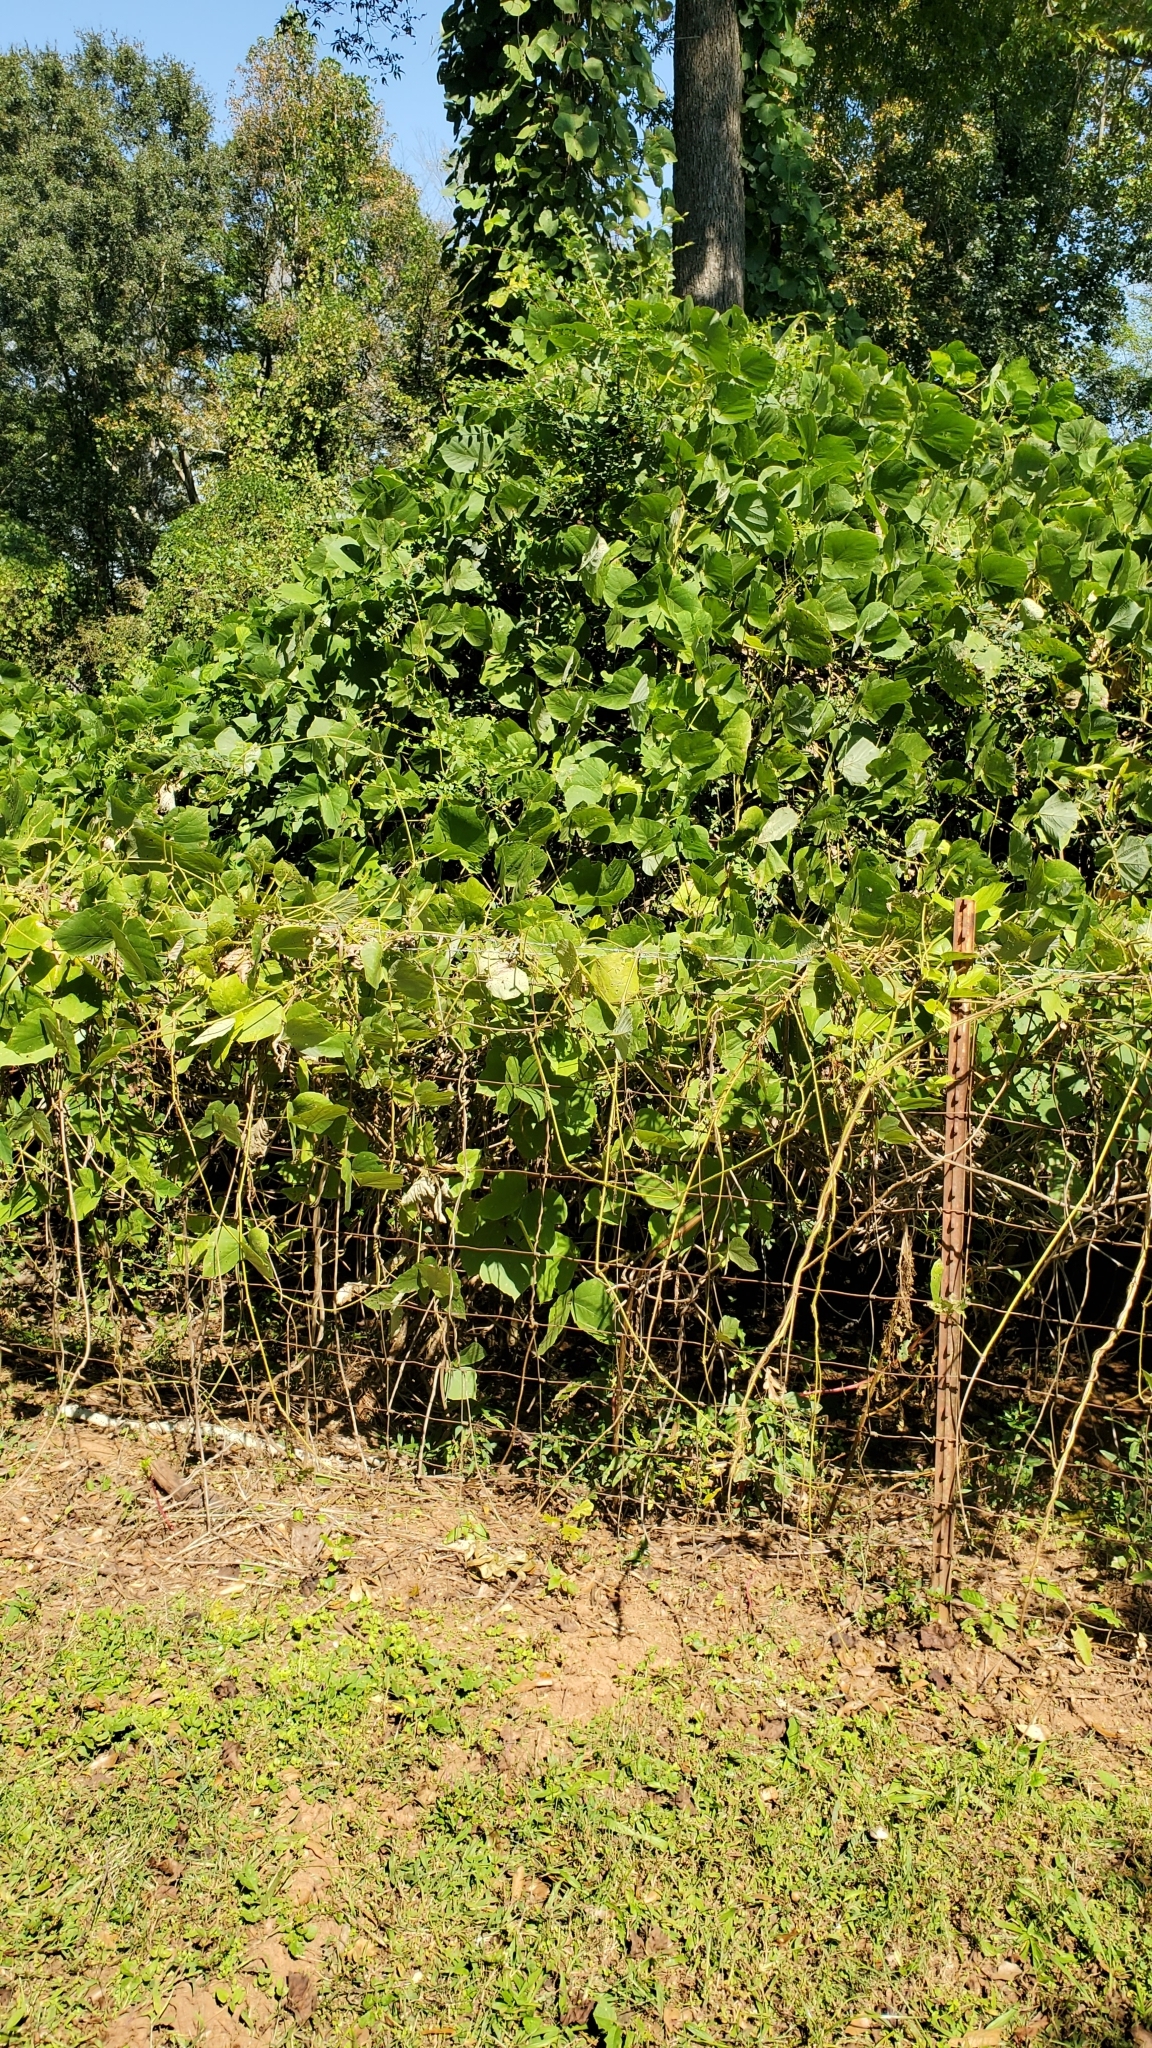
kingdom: Plantae
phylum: Tracheophyta
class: Magnoliopsida
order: Fabales
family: Fabaceae
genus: Pueraria
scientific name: Pueraria montana
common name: Kudzu
